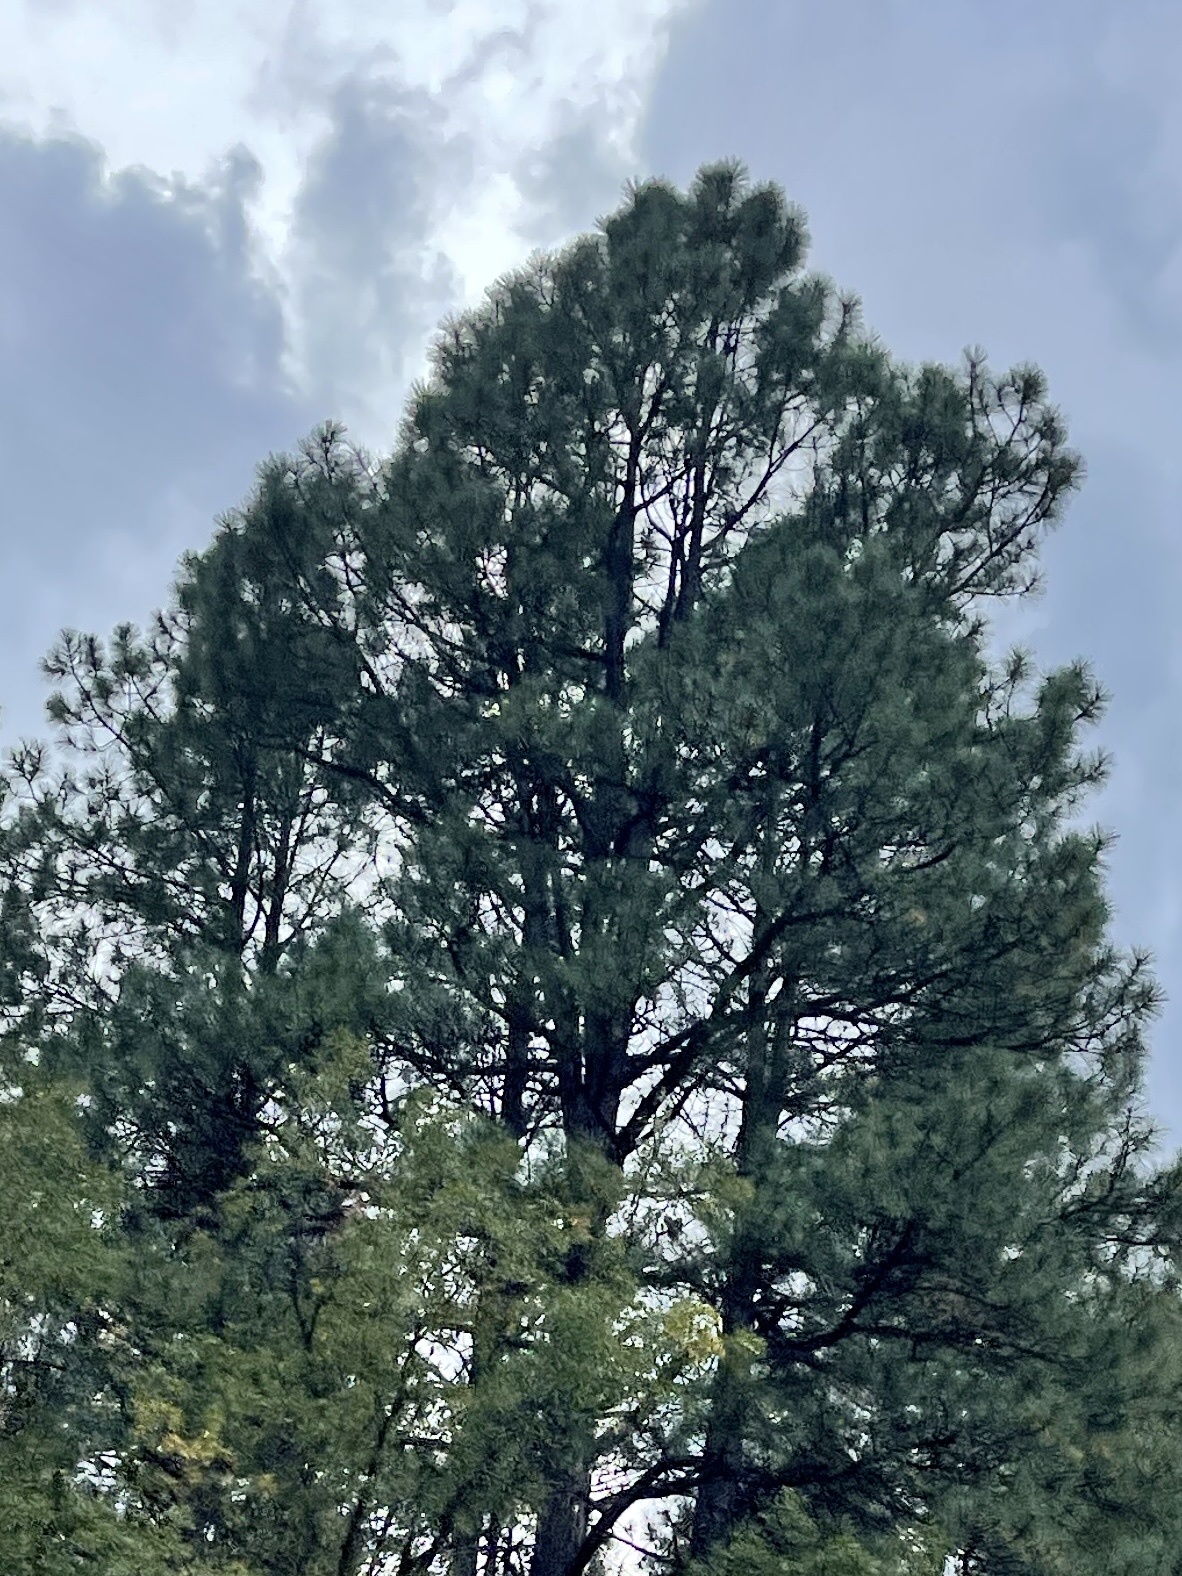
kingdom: Plantae
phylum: Tracheophyta
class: Pinopsida
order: Pinales
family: Pinaceae
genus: Pinus
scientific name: Pinus ponderosa
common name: Western yellow-pine
